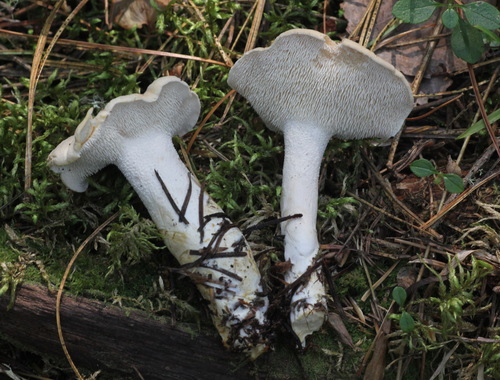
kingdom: Fungi
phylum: Basidiomycota
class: Agaricomycetes
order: Cantharellales
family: Hydnaceae
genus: Hydnum
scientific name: Hydnum repandum
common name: Wood hedgehog
